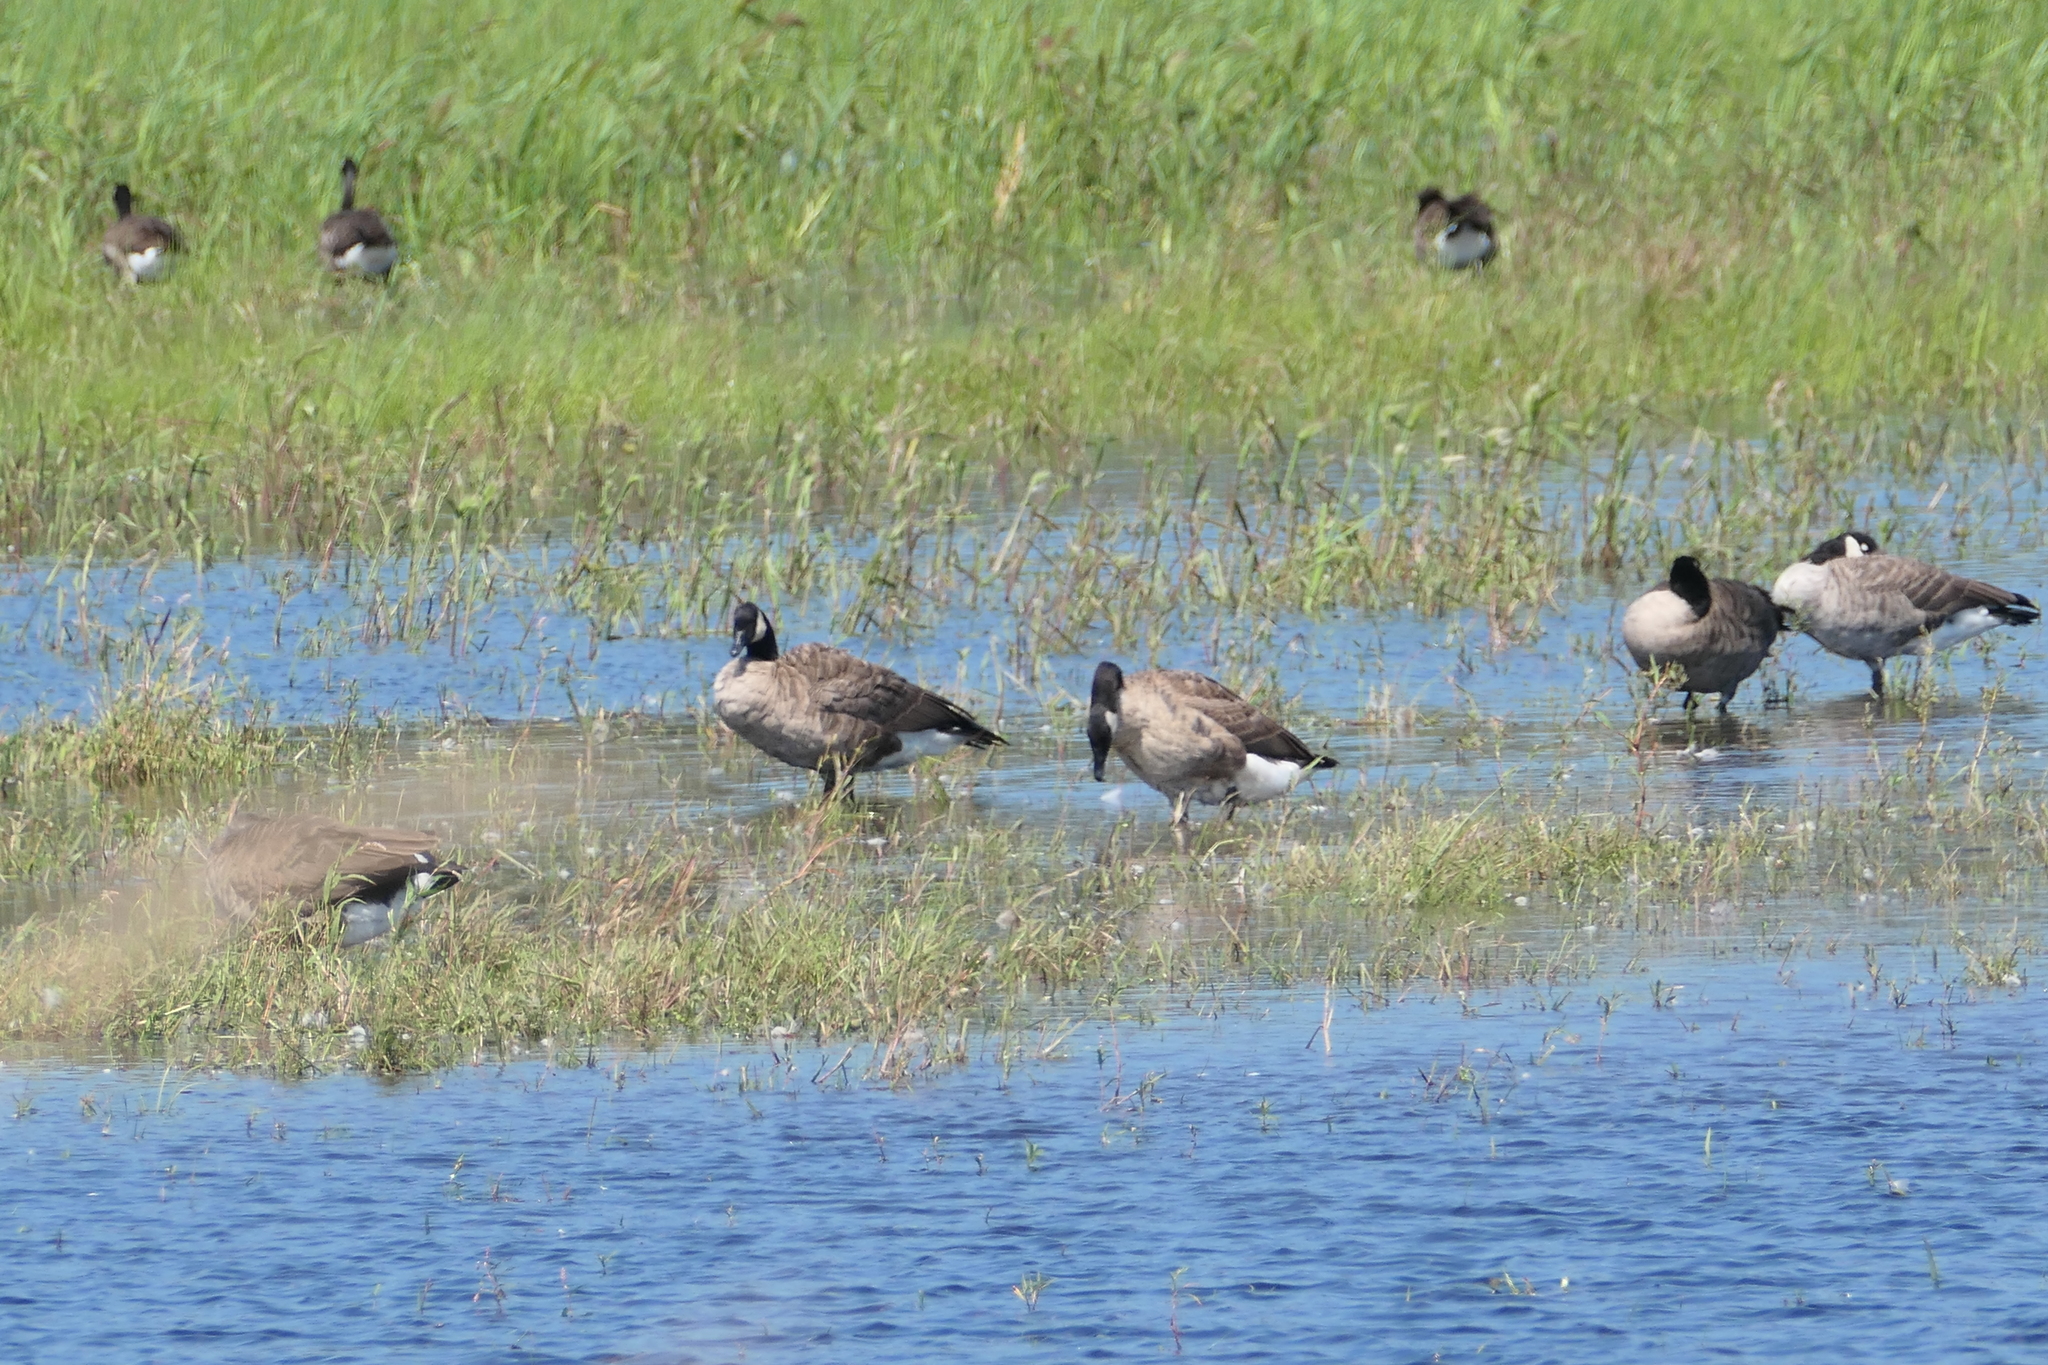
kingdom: Animalia
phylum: Chordata
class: Aves
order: Anseriformes
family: Anatidae
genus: Branta
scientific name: Branta canadensis
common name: Canada goose
